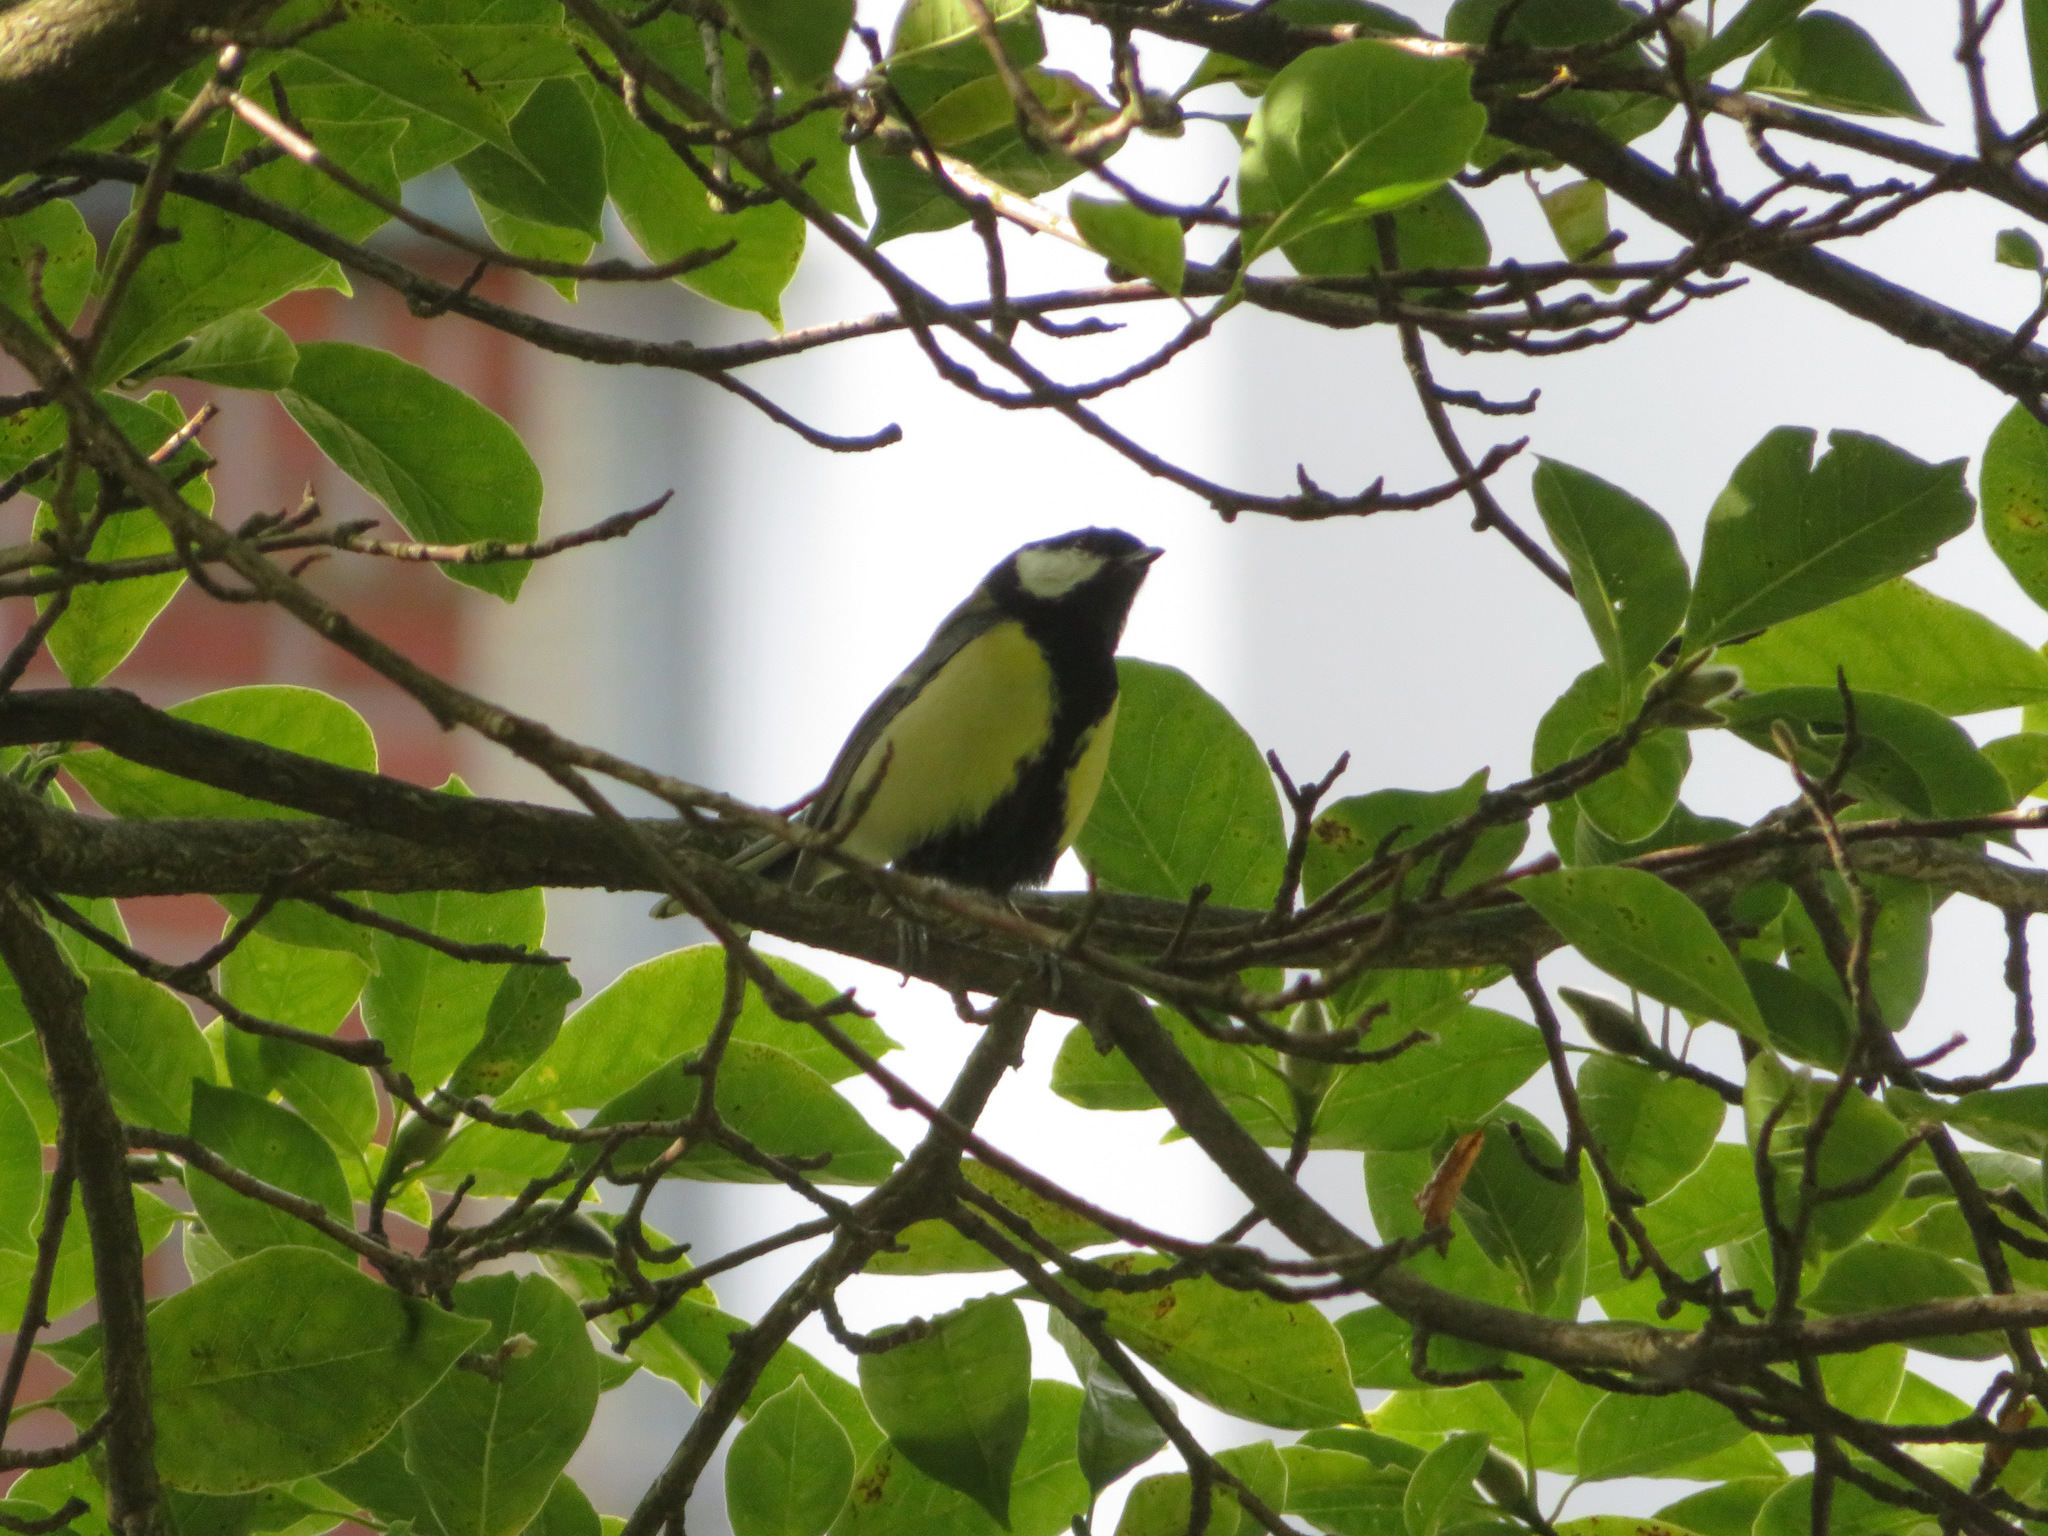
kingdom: Animalia
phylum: Chordata
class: Aves
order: Passeriformes
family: Paridae
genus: Parus
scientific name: Parus major
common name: Great tit
